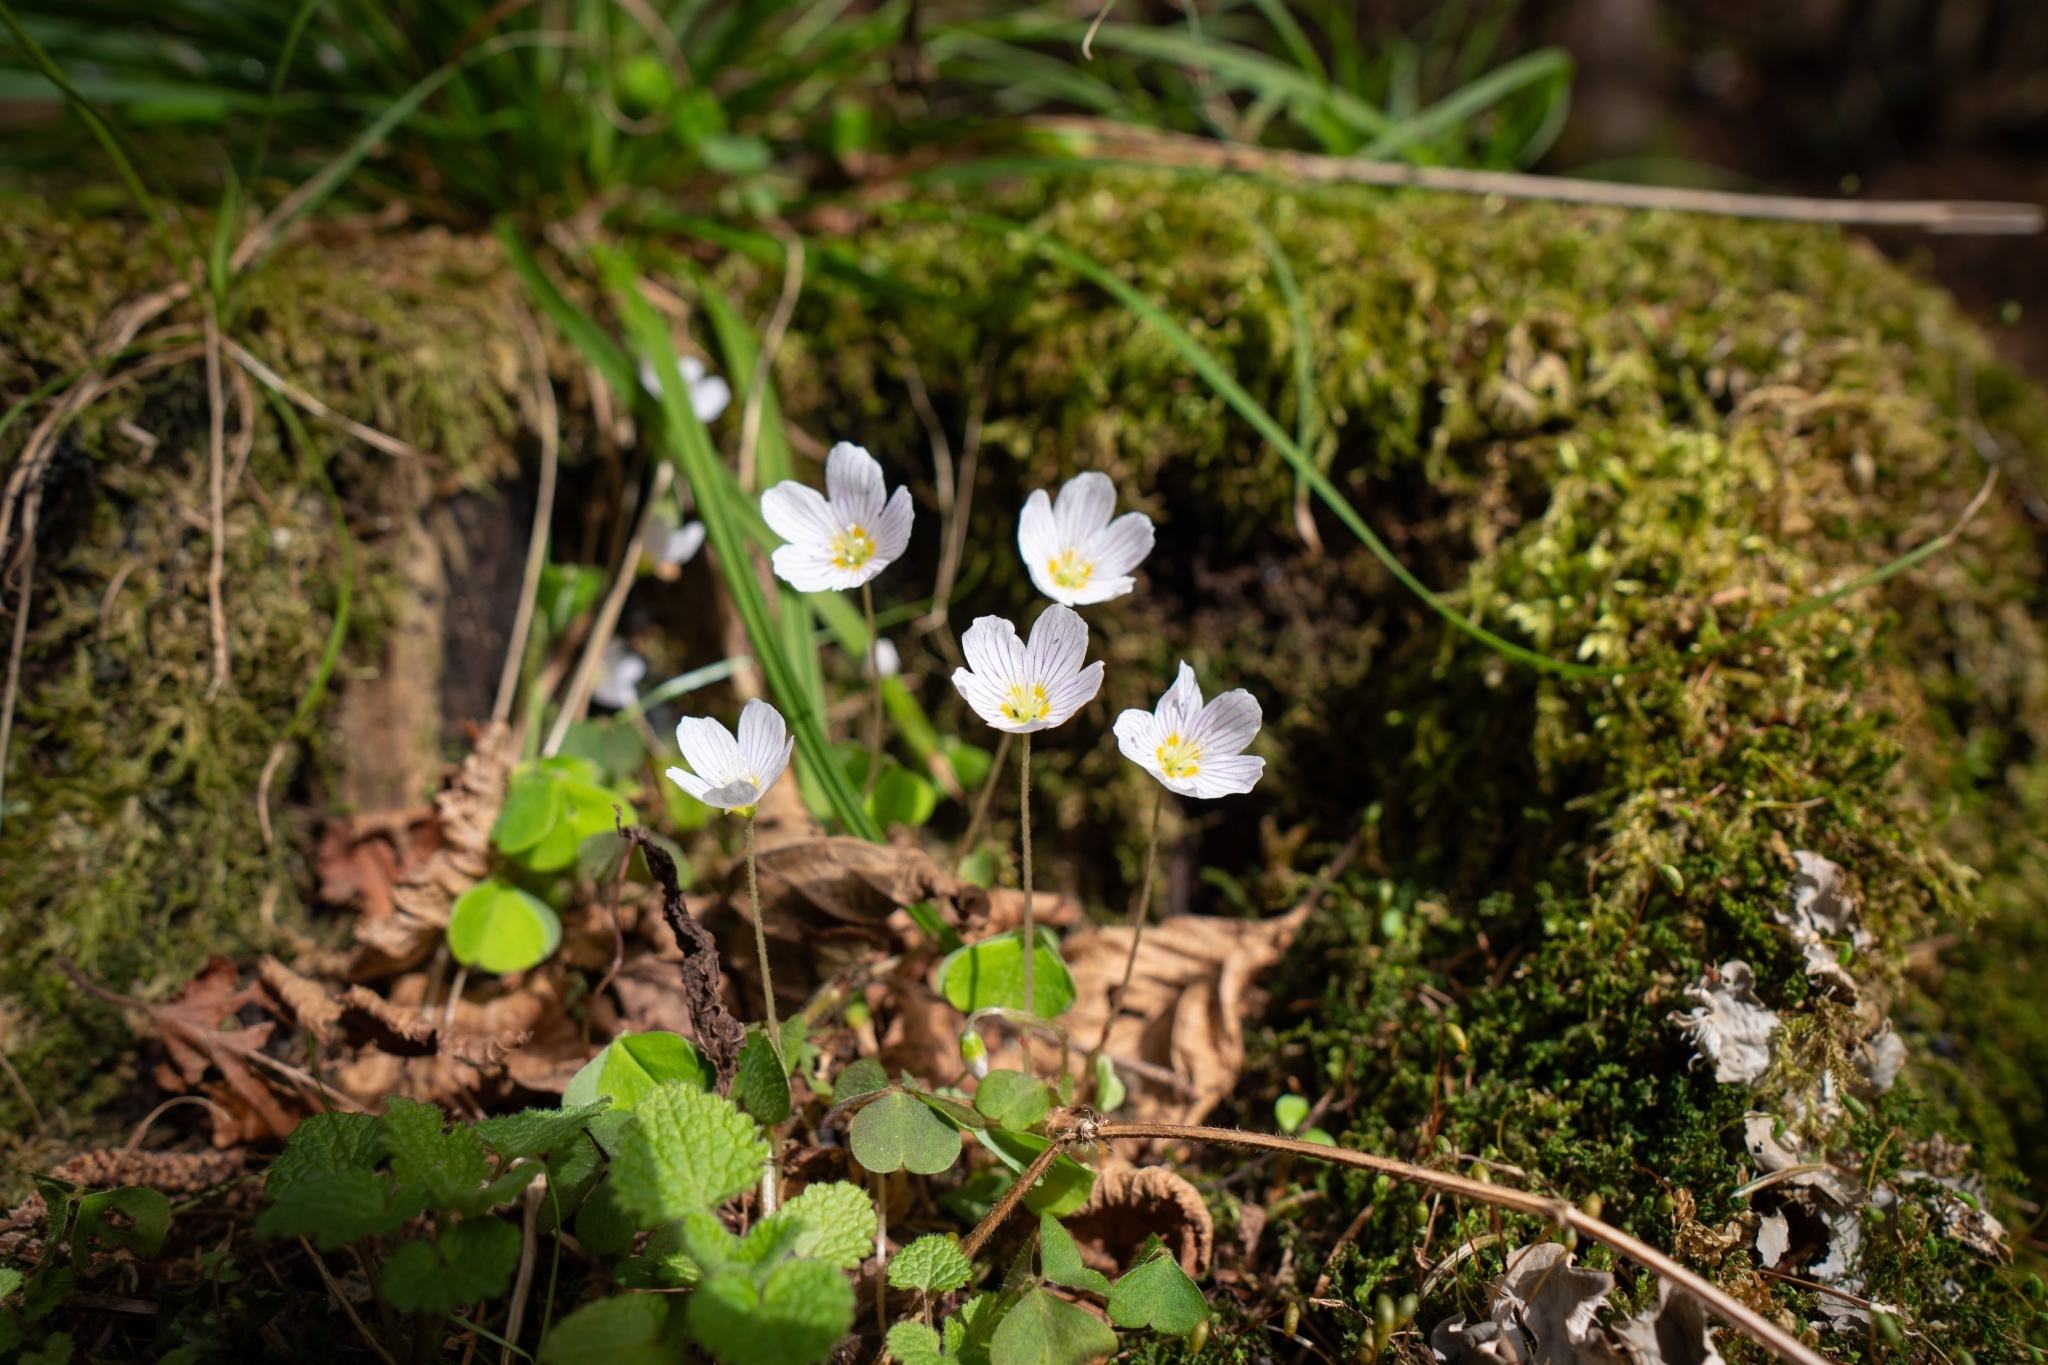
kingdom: Plantae
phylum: Tracheophyta
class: Magnoliopsida
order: Oxalidales
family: Oxalidaceae
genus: Oxalis
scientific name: Oxalis acetosella
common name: Wood-sorrel
